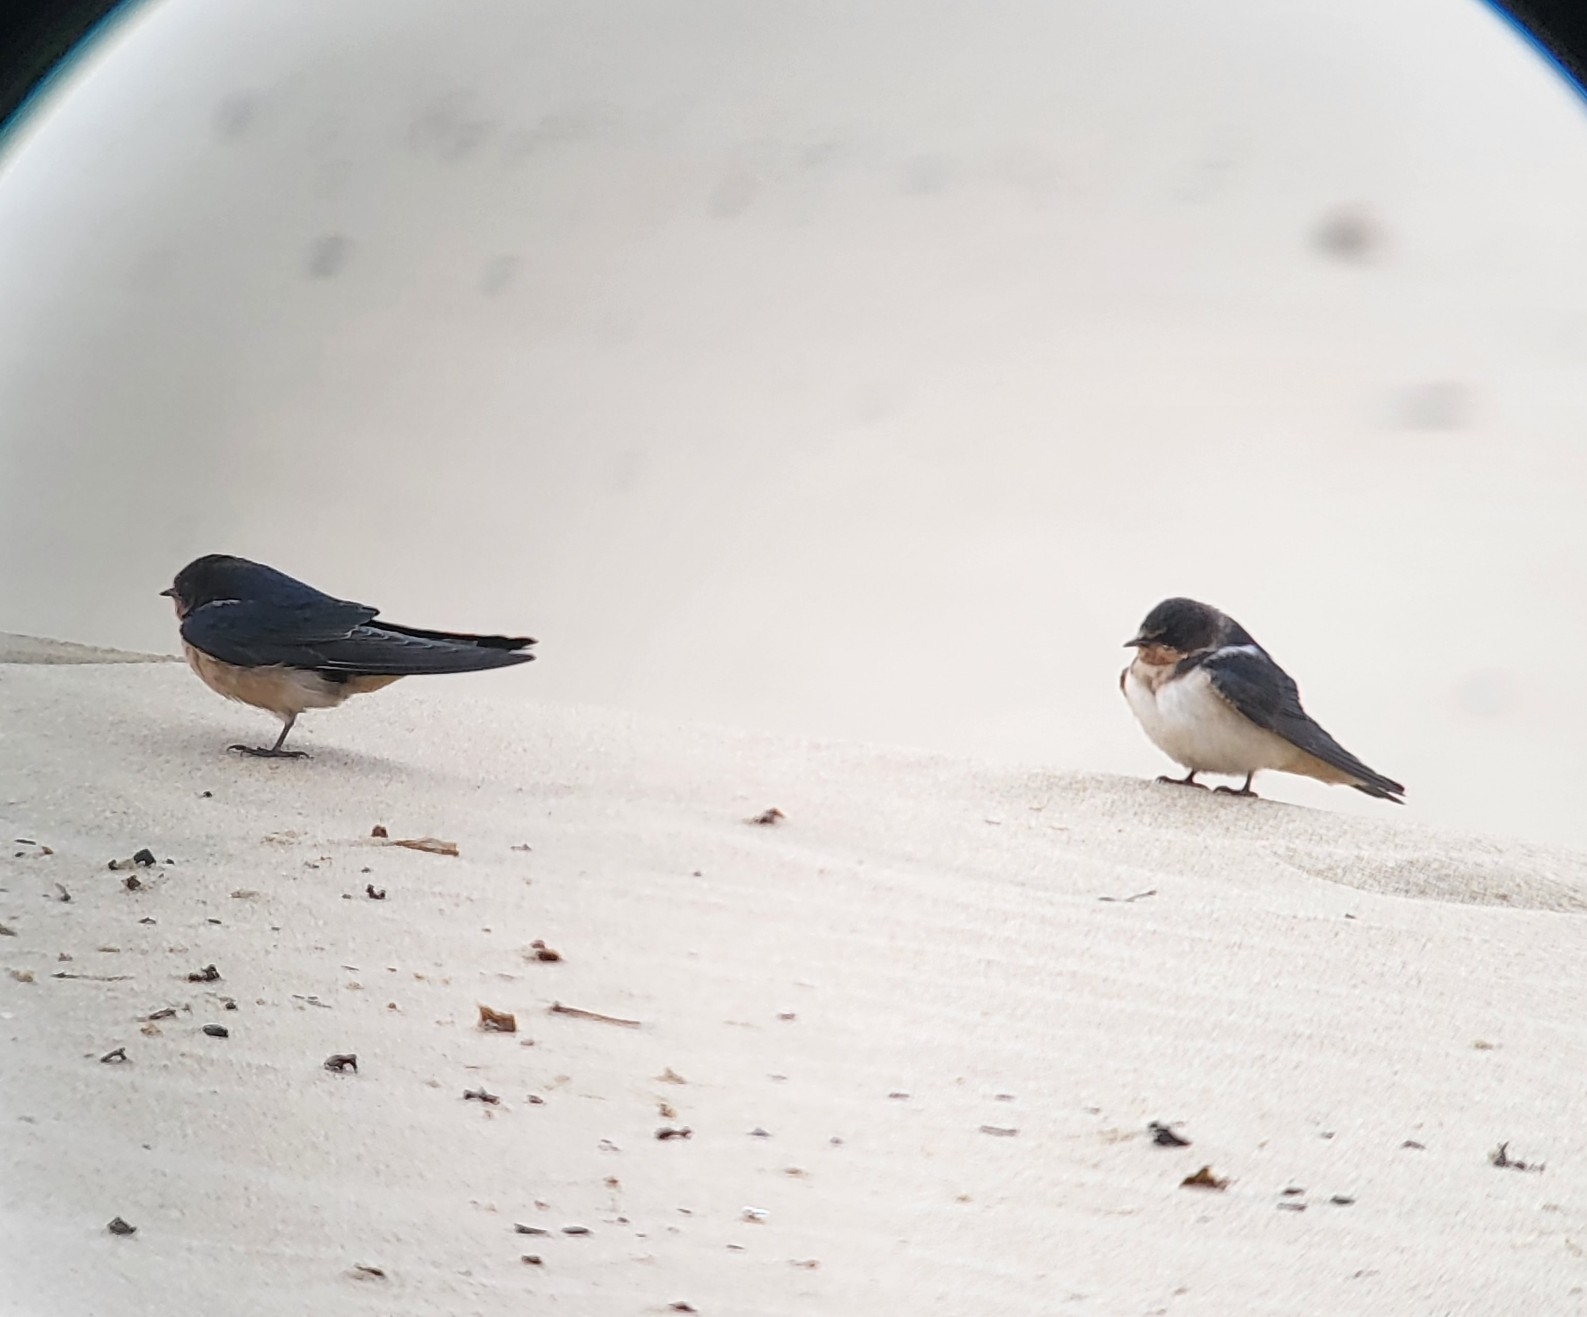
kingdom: Animalia
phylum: Chordata
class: Aves
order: Passeriformes
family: Hirundinidae
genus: Hirundo
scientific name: Hirundo rustica
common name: Barn swallow
